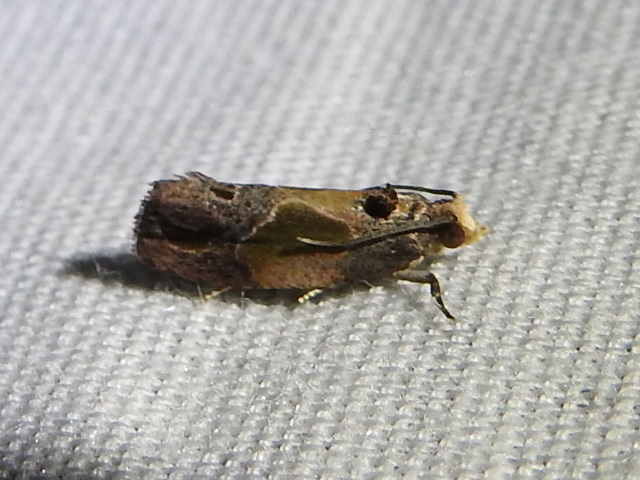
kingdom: Animalia
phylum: Arthropoda
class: Insecta
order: Lepidoptera
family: Tortricidae
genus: Eumarozia
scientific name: Eumarozia malachitana
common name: Sculptured moth
